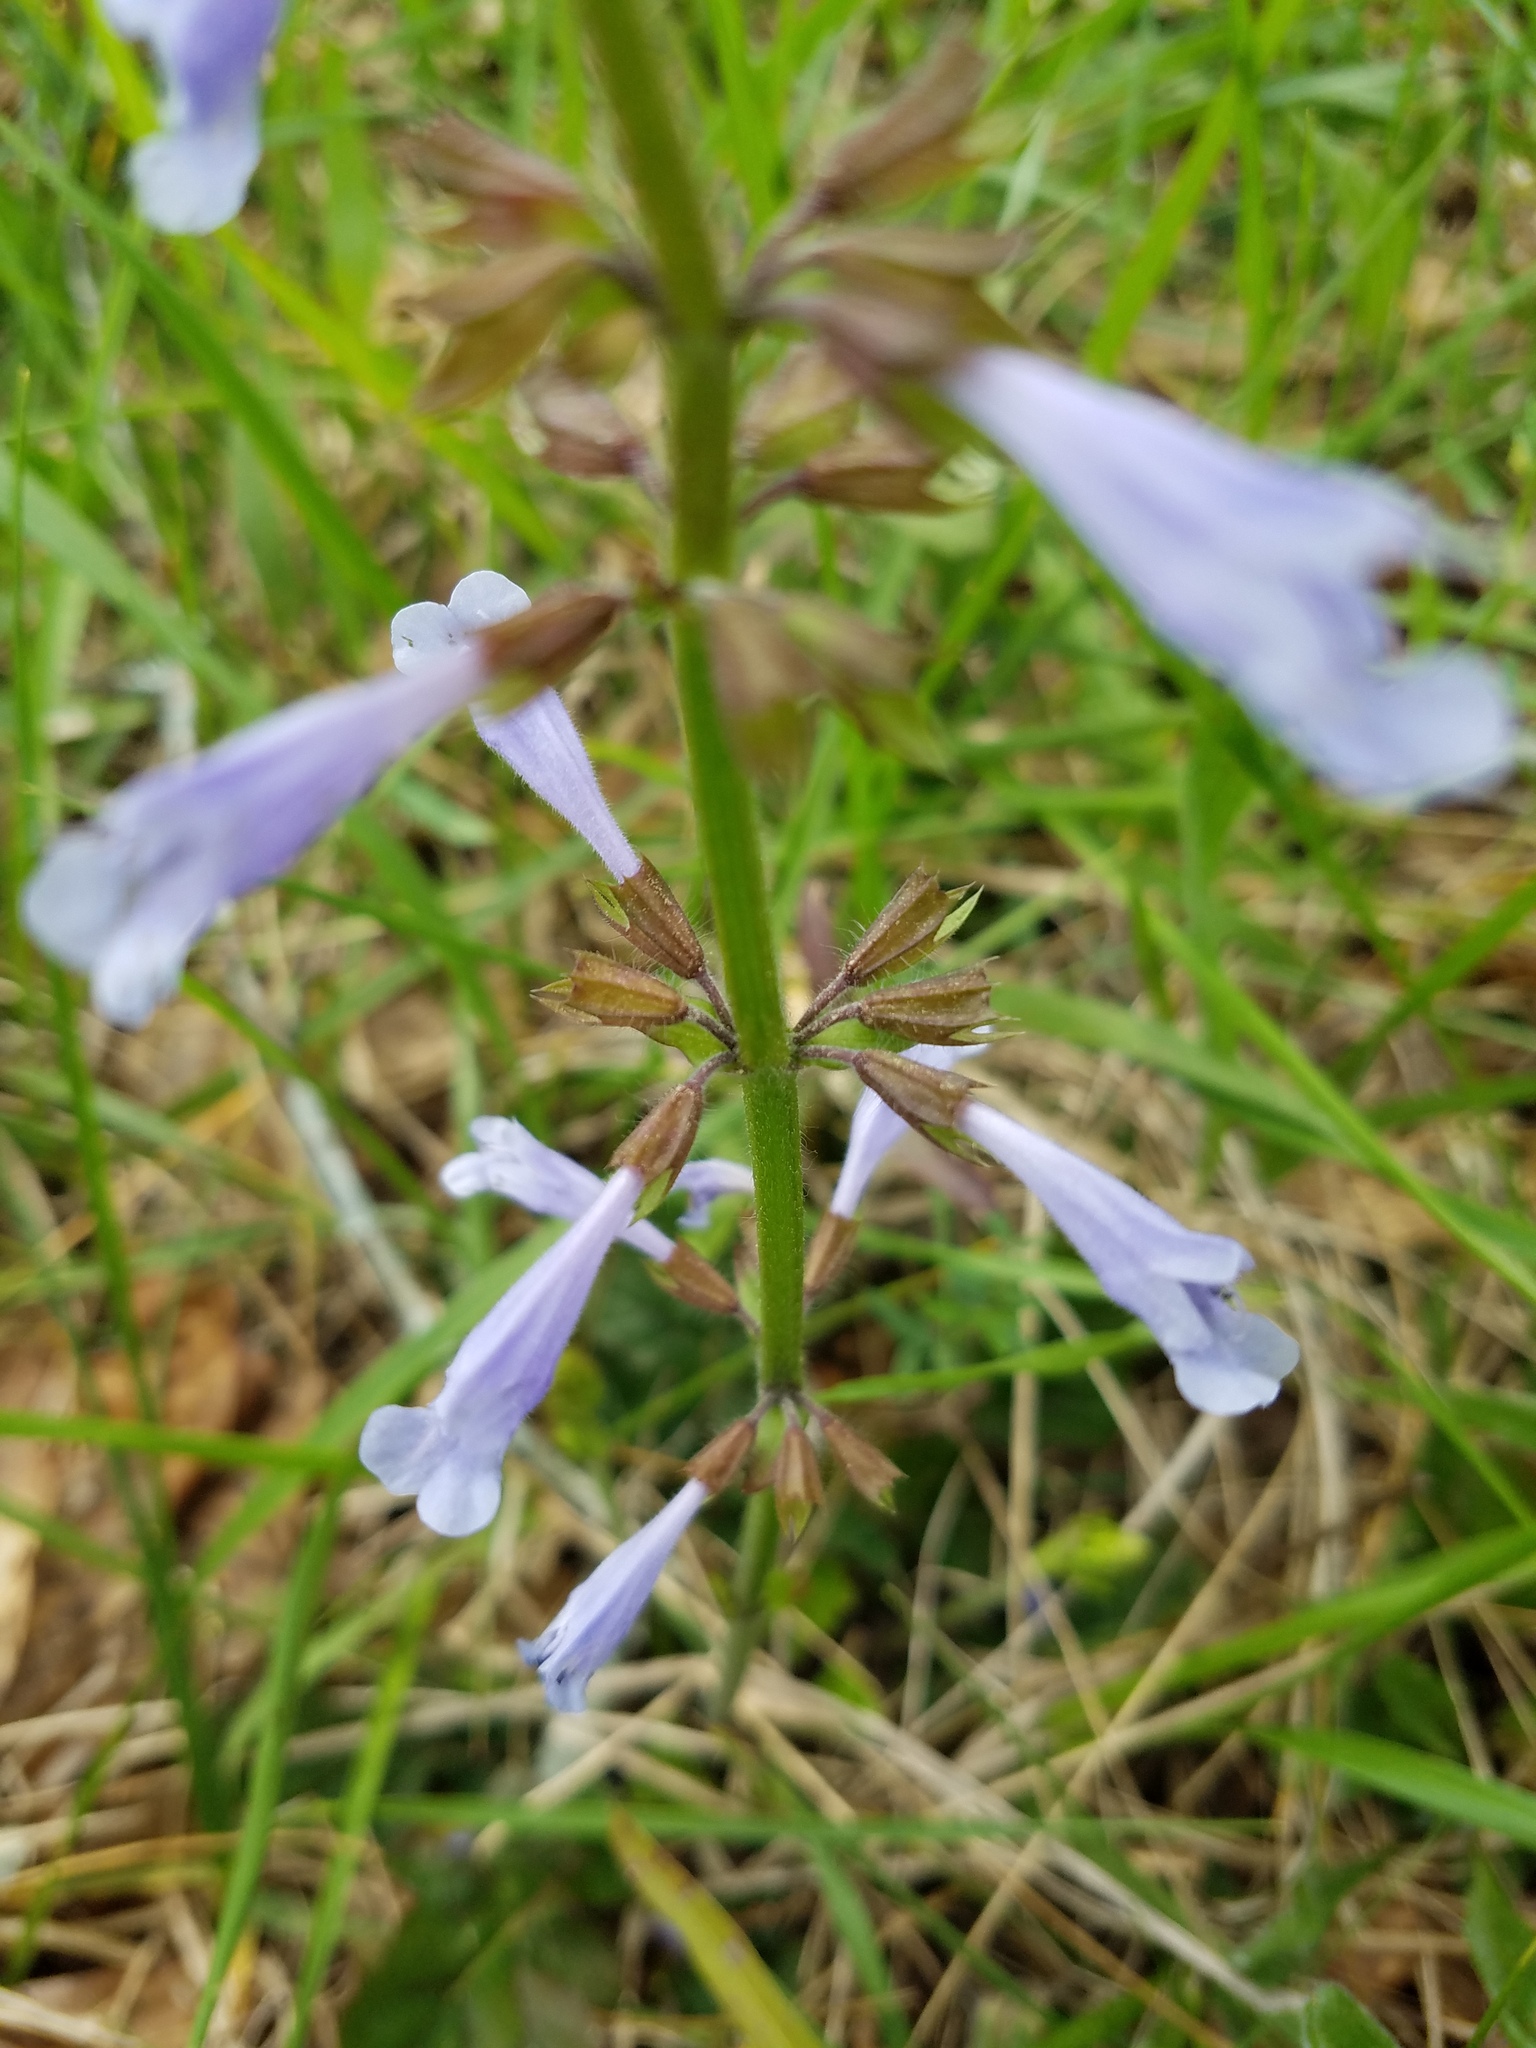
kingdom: Plantae
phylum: Tracheophyta
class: Magnoliopsida
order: Lamiales
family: Lamiaceae
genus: Salvia
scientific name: Salvia lyrata
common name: Cancerweed
